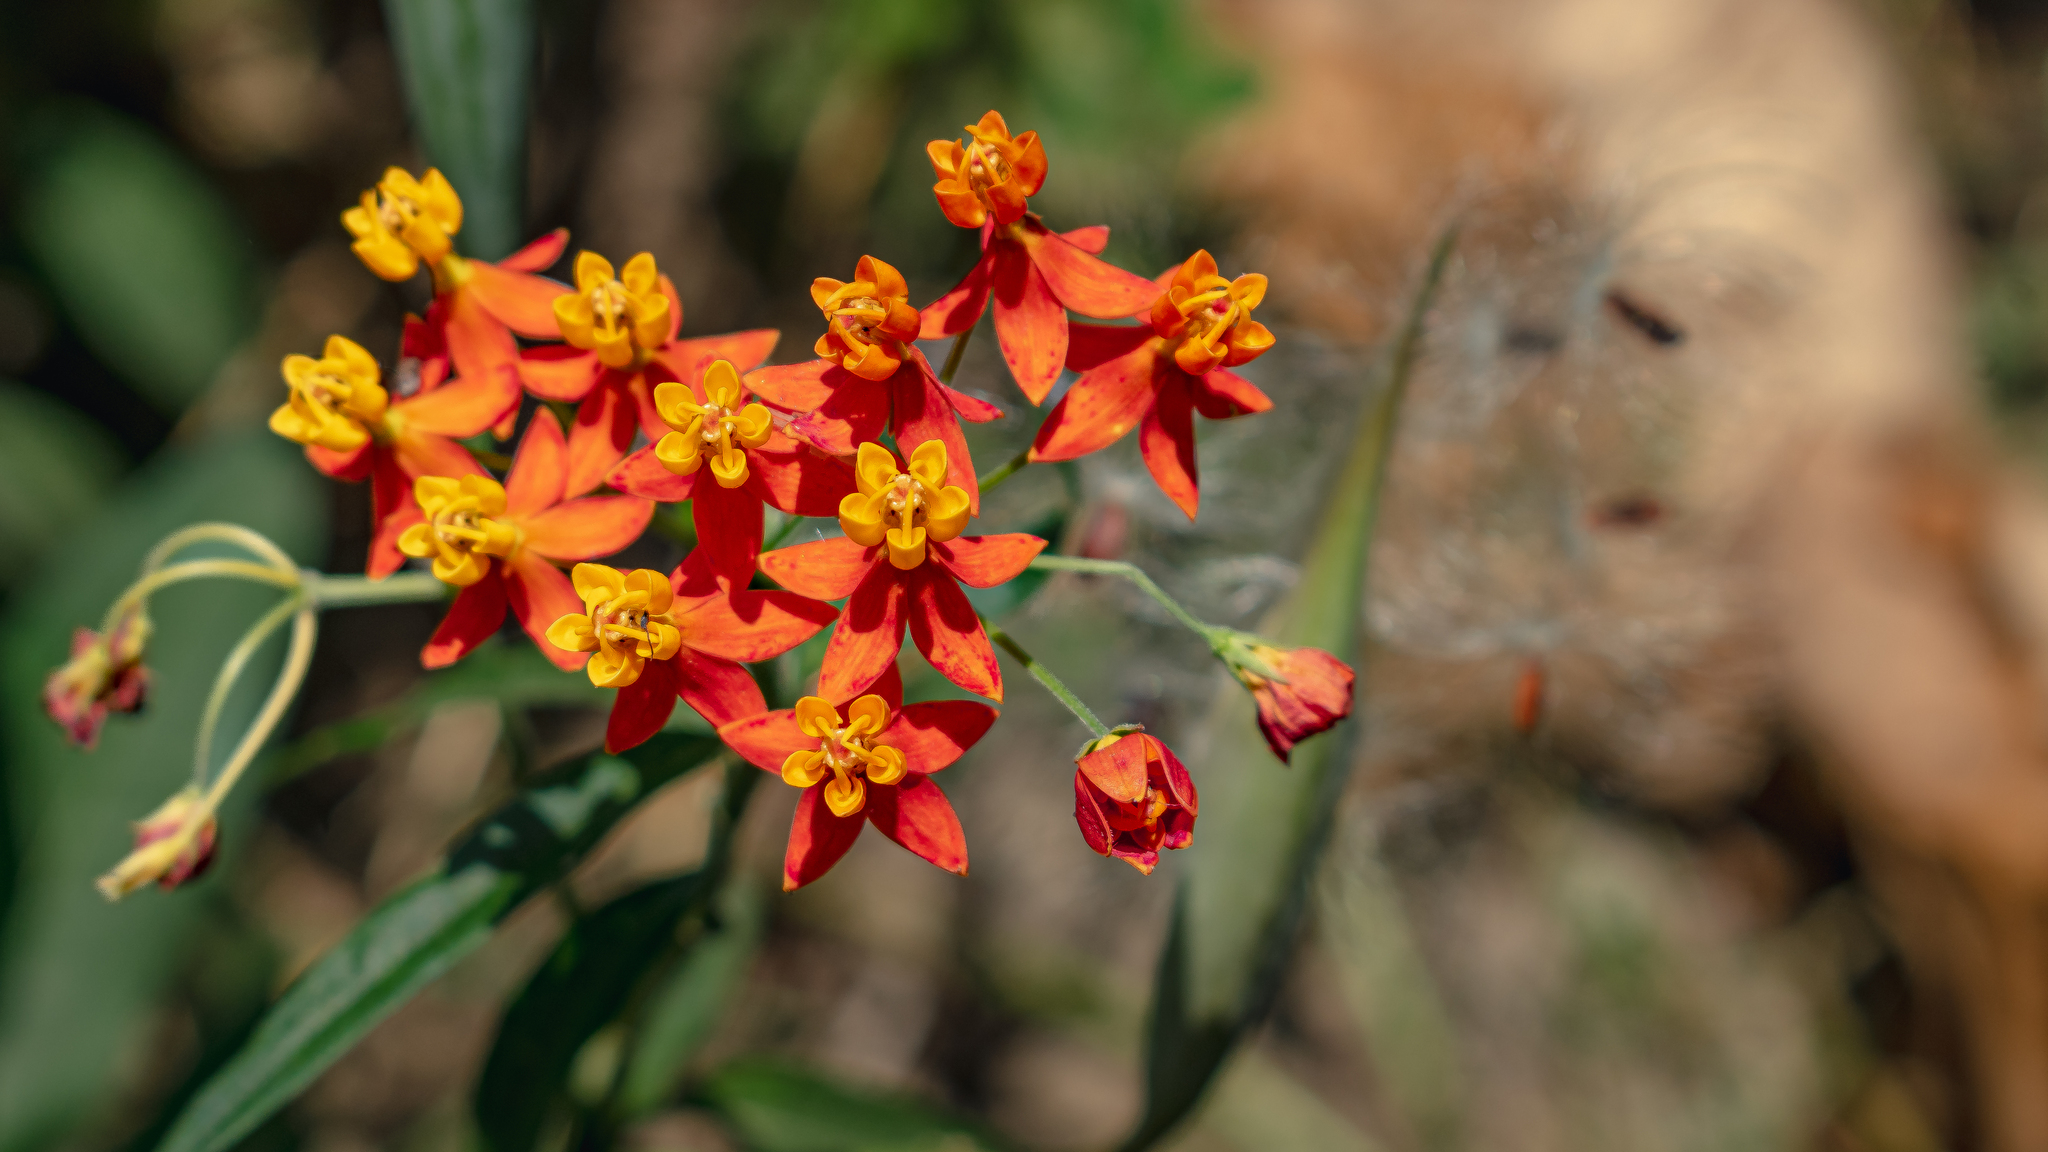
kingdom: Plantae
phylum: Tracheophyta
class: Magnoliopsida
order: Gentianales
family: Apocynaceae
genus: Asclepias
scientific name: Asclepias curassavica
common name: Bloodflower
